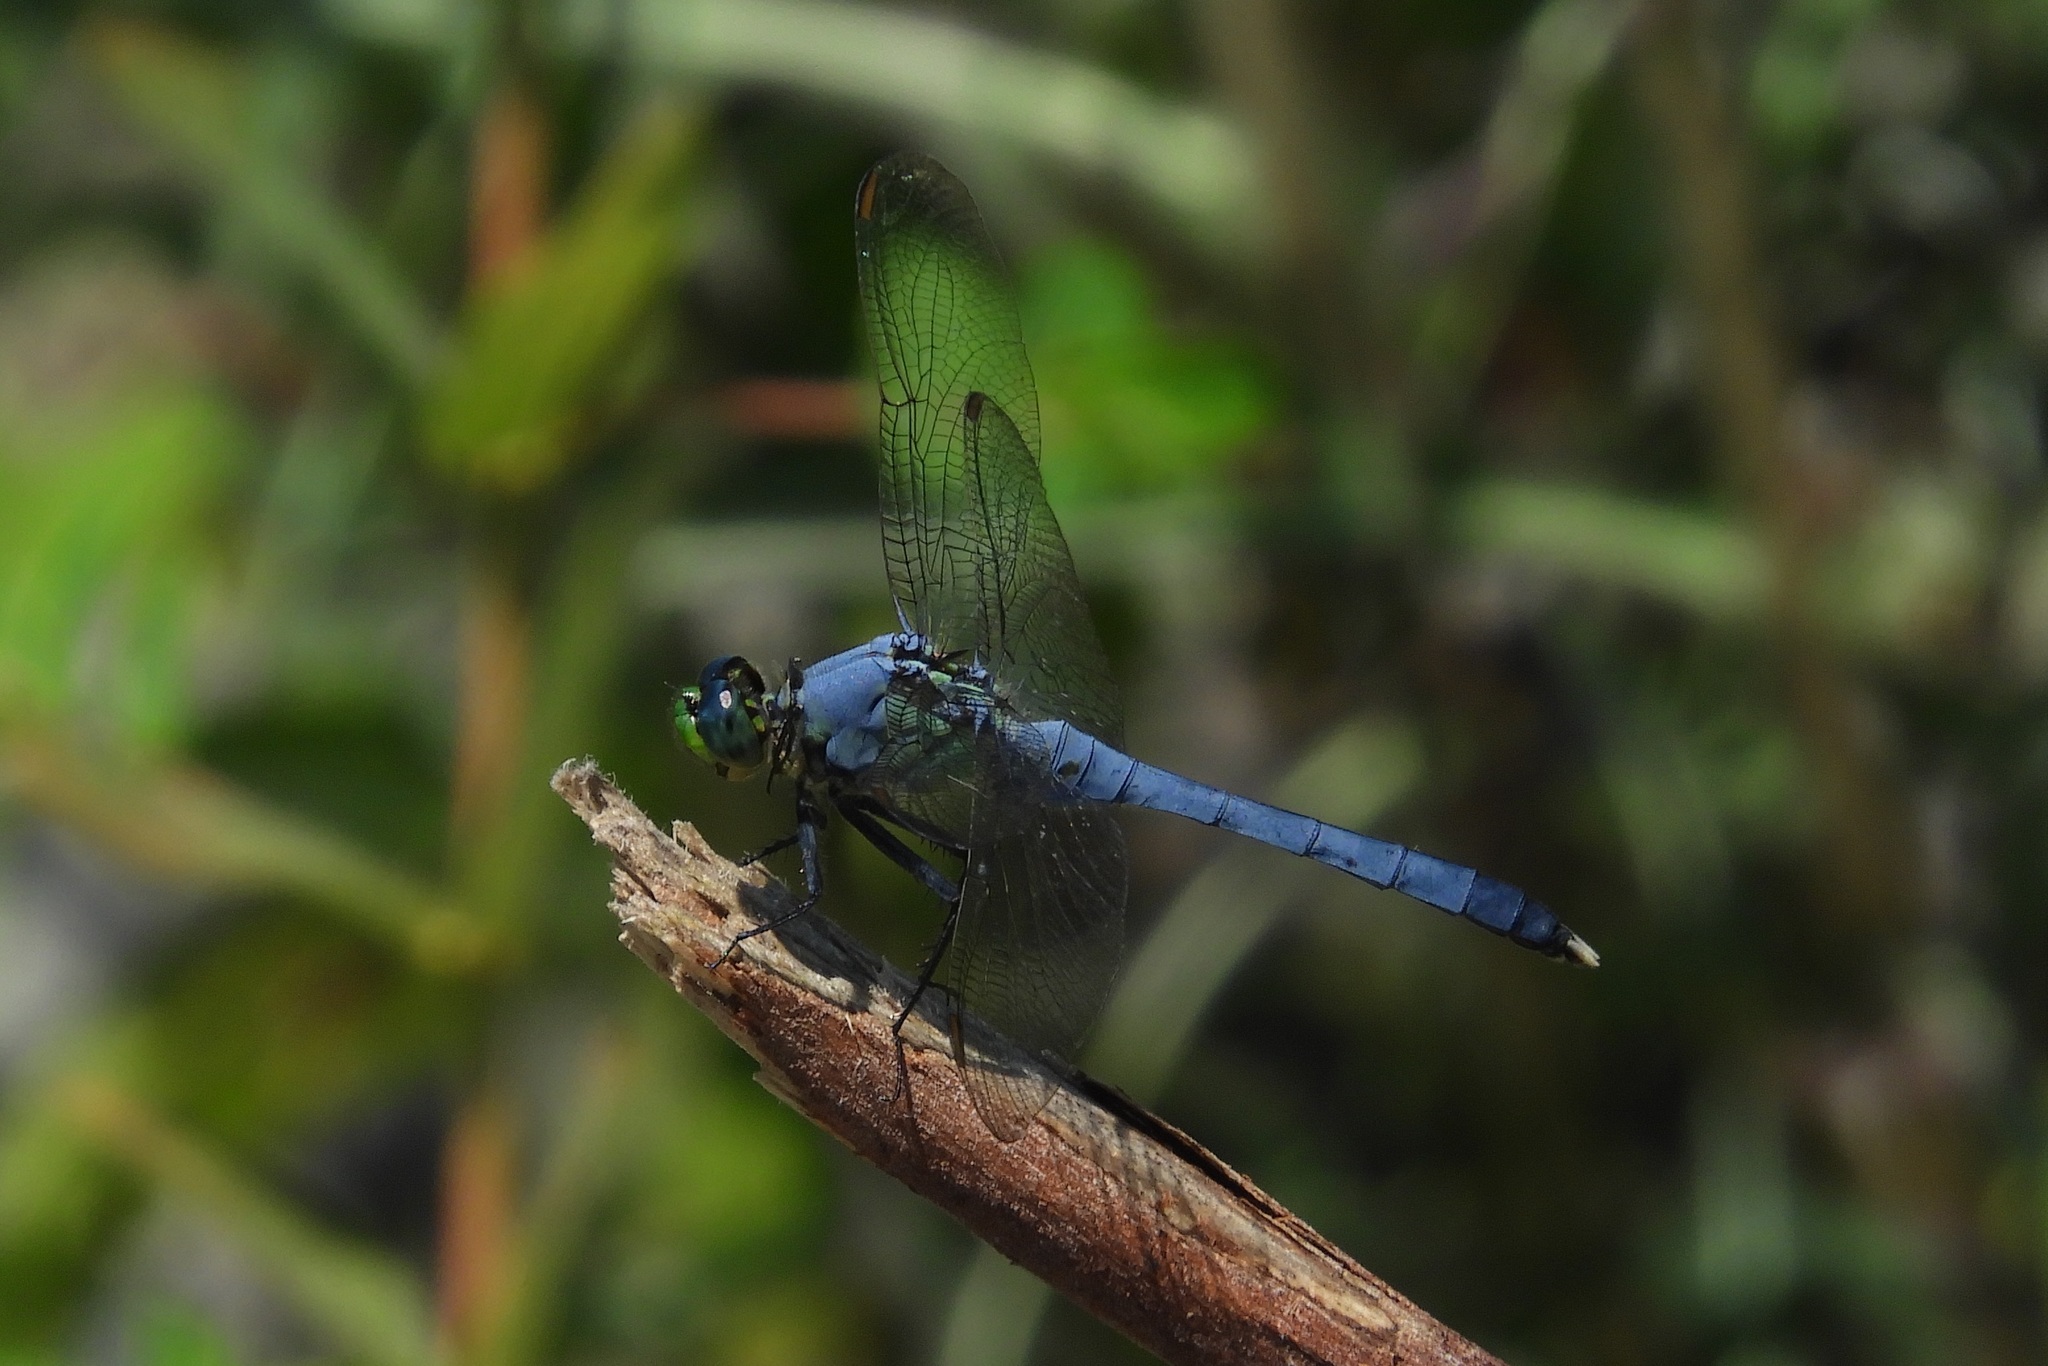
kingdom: Animalia
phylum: Arthropoda
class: Insecta
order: Odonata
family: Libellulidae
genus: Erythemis
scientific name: Erythemis simplicicollis
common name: Eastern pondhawk
